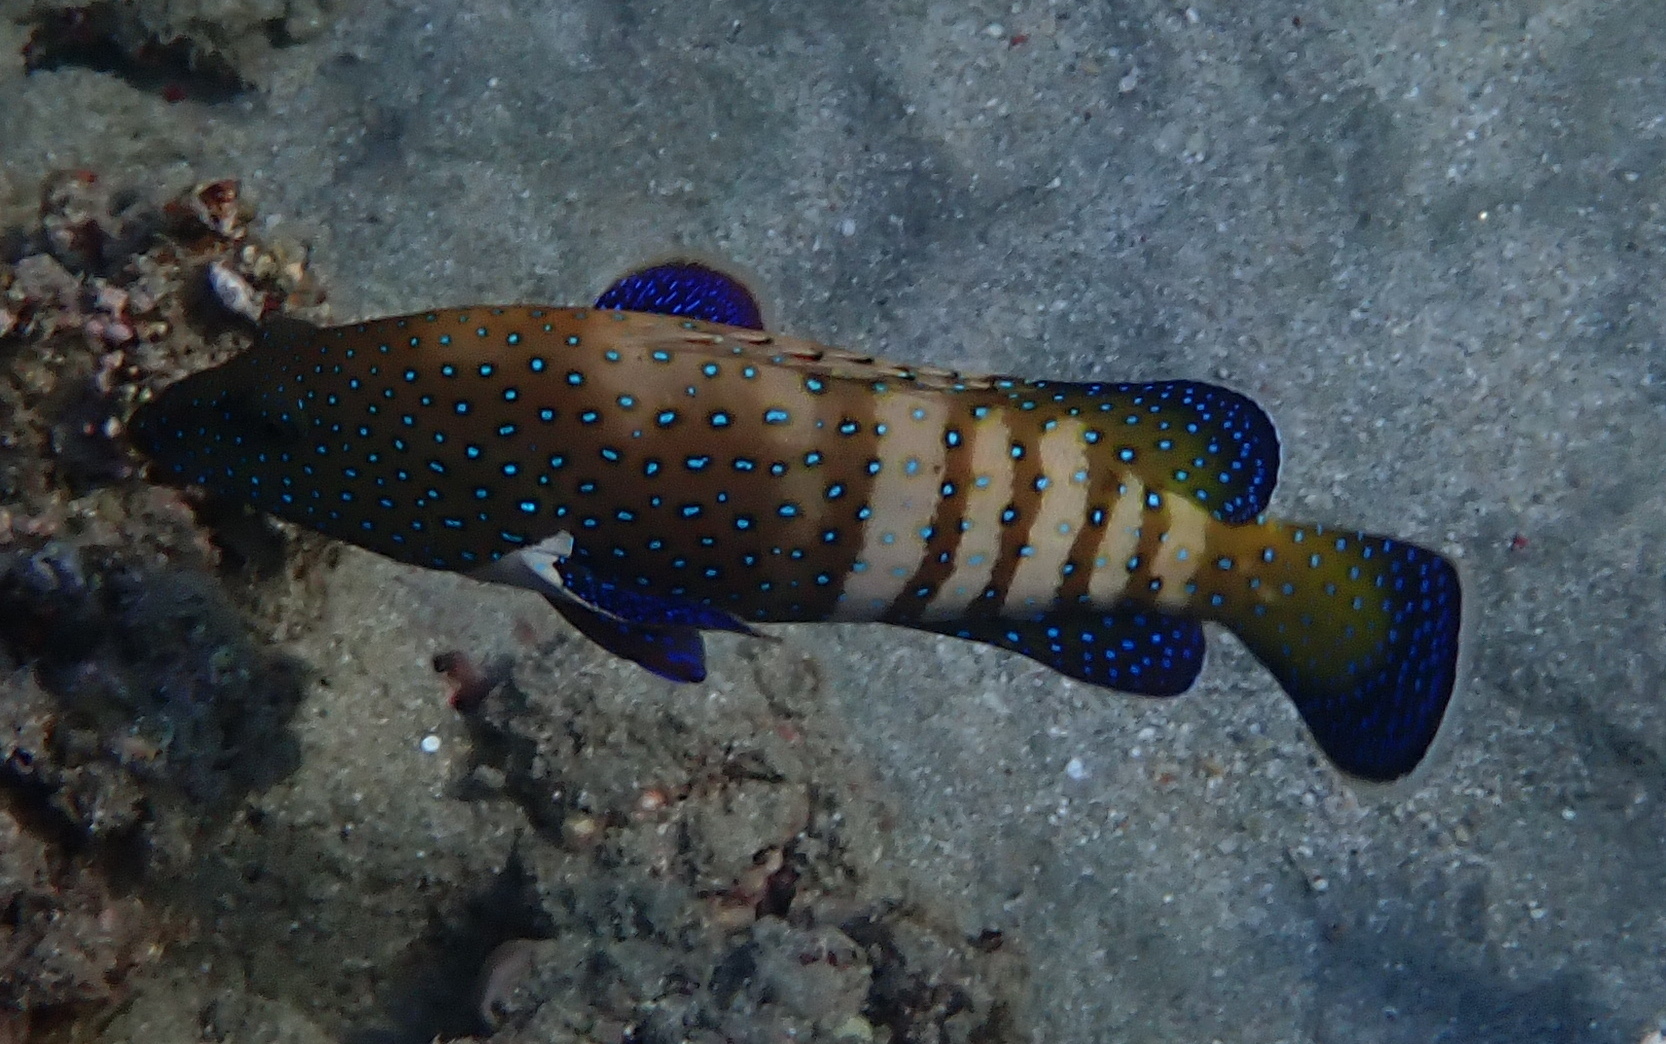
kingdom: Animalia
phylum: Chordata
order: Perciformes
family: Serranidae
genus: Cephalopholis
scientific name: Cephalopholis argus
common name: Peacock grouper
